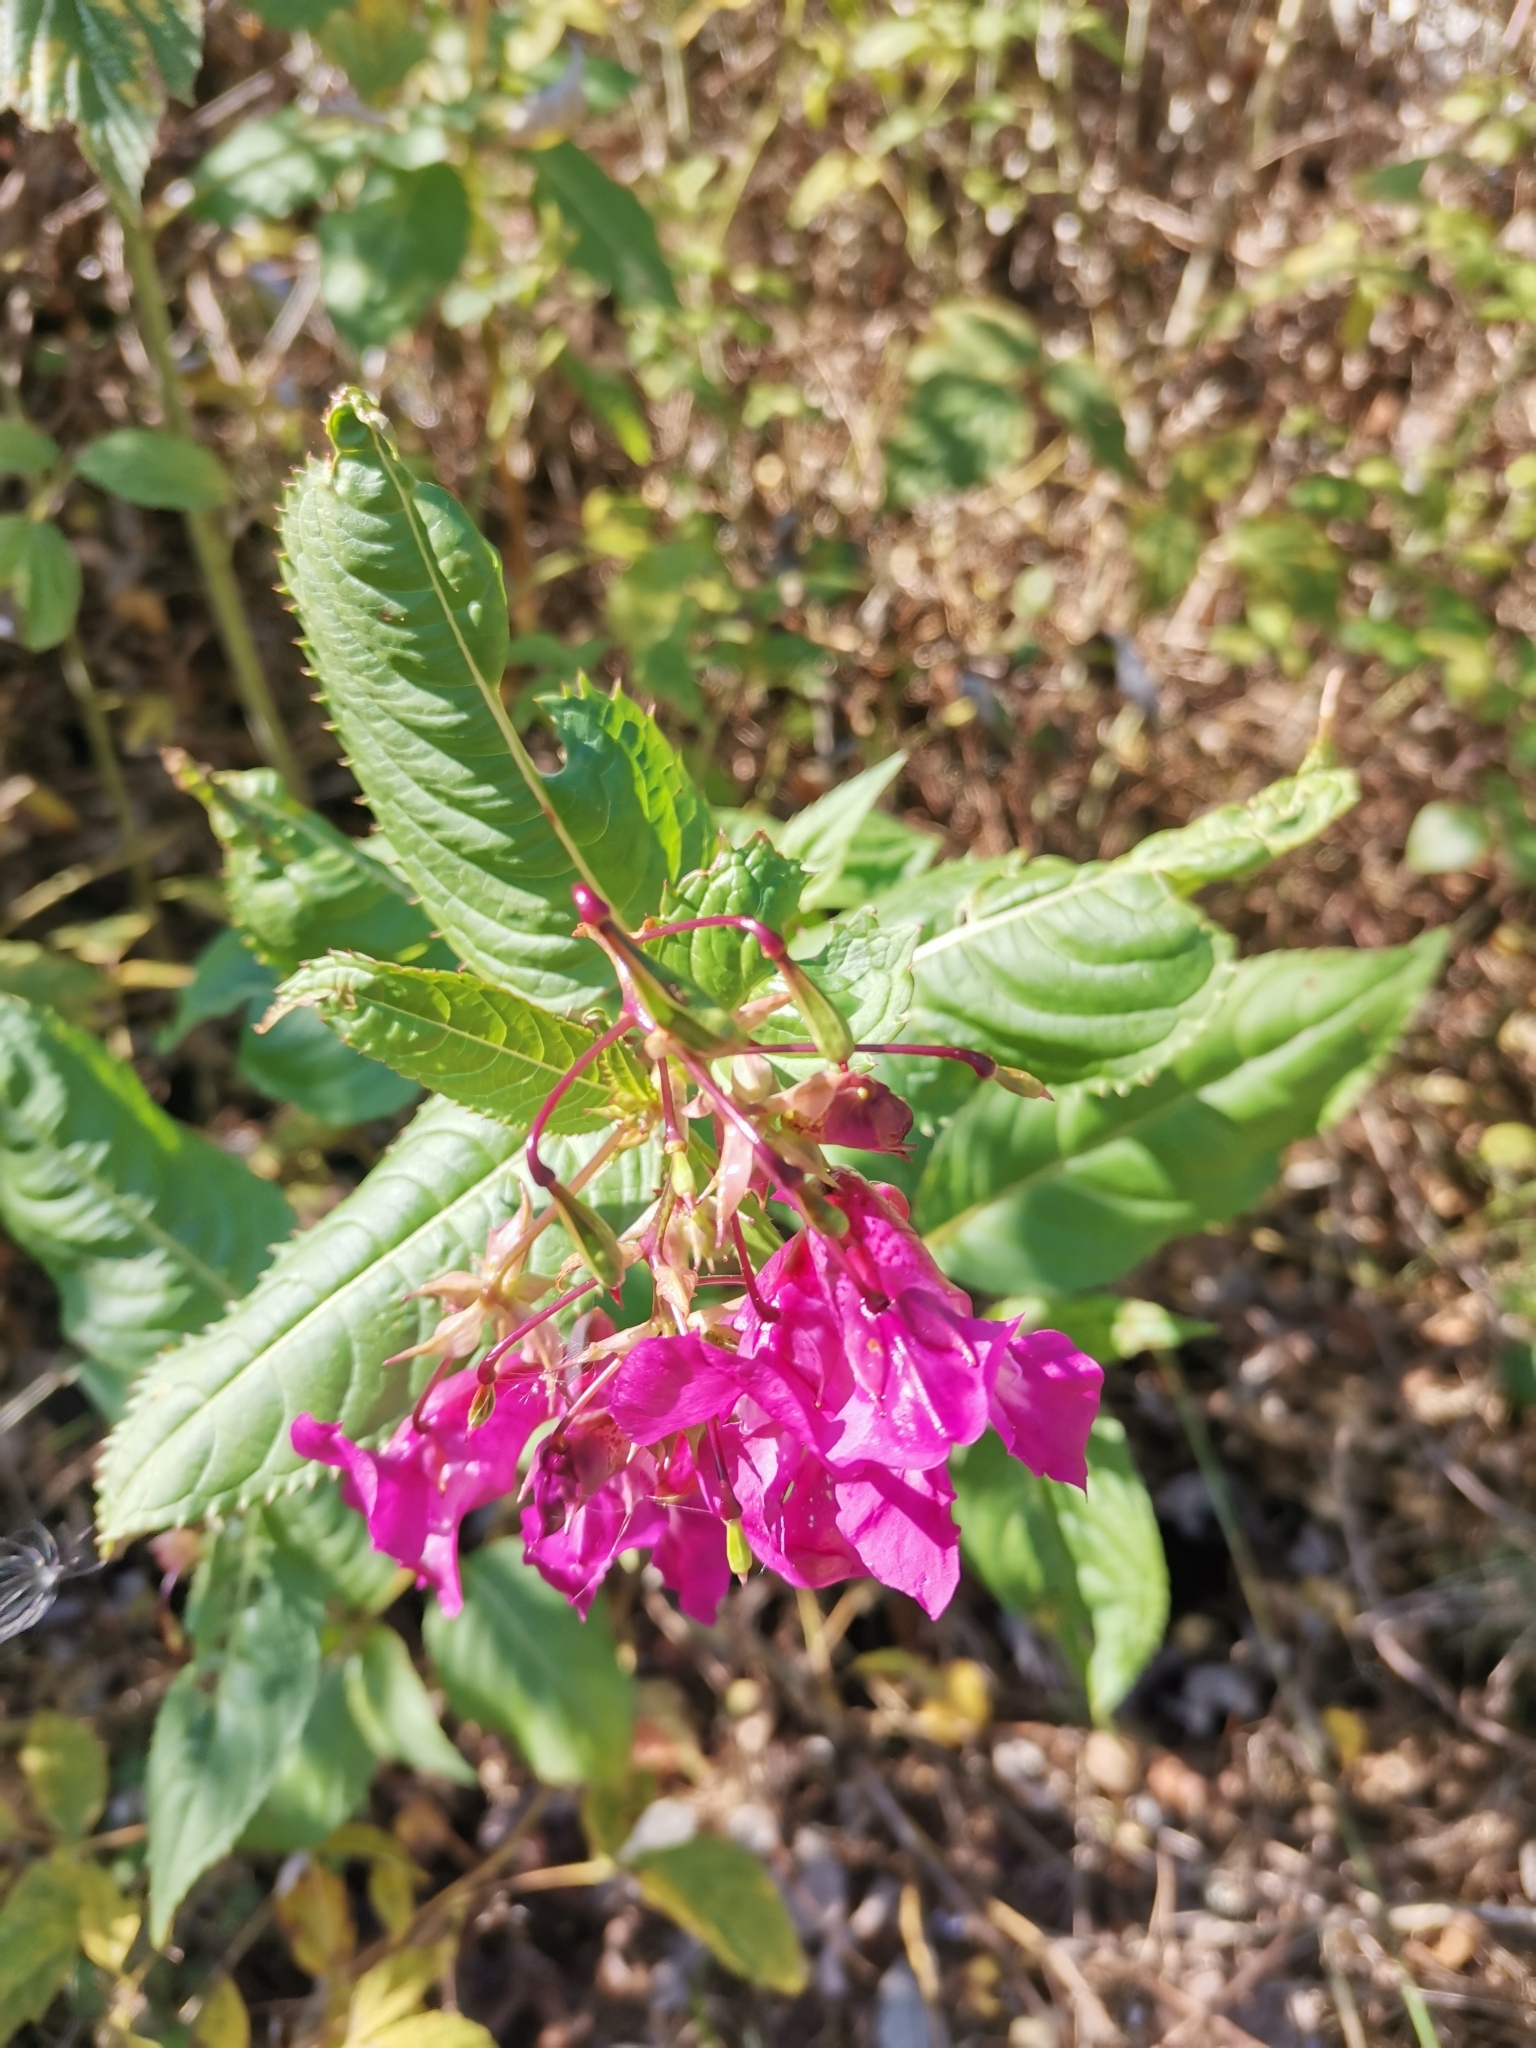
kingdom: Plantae
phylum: Tracheophyta
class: Magnoliopsida
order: Ericales
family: Balsaminaceae
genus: Impatiens
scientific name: Impatiens glandulifera
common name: Himalayan balsam
